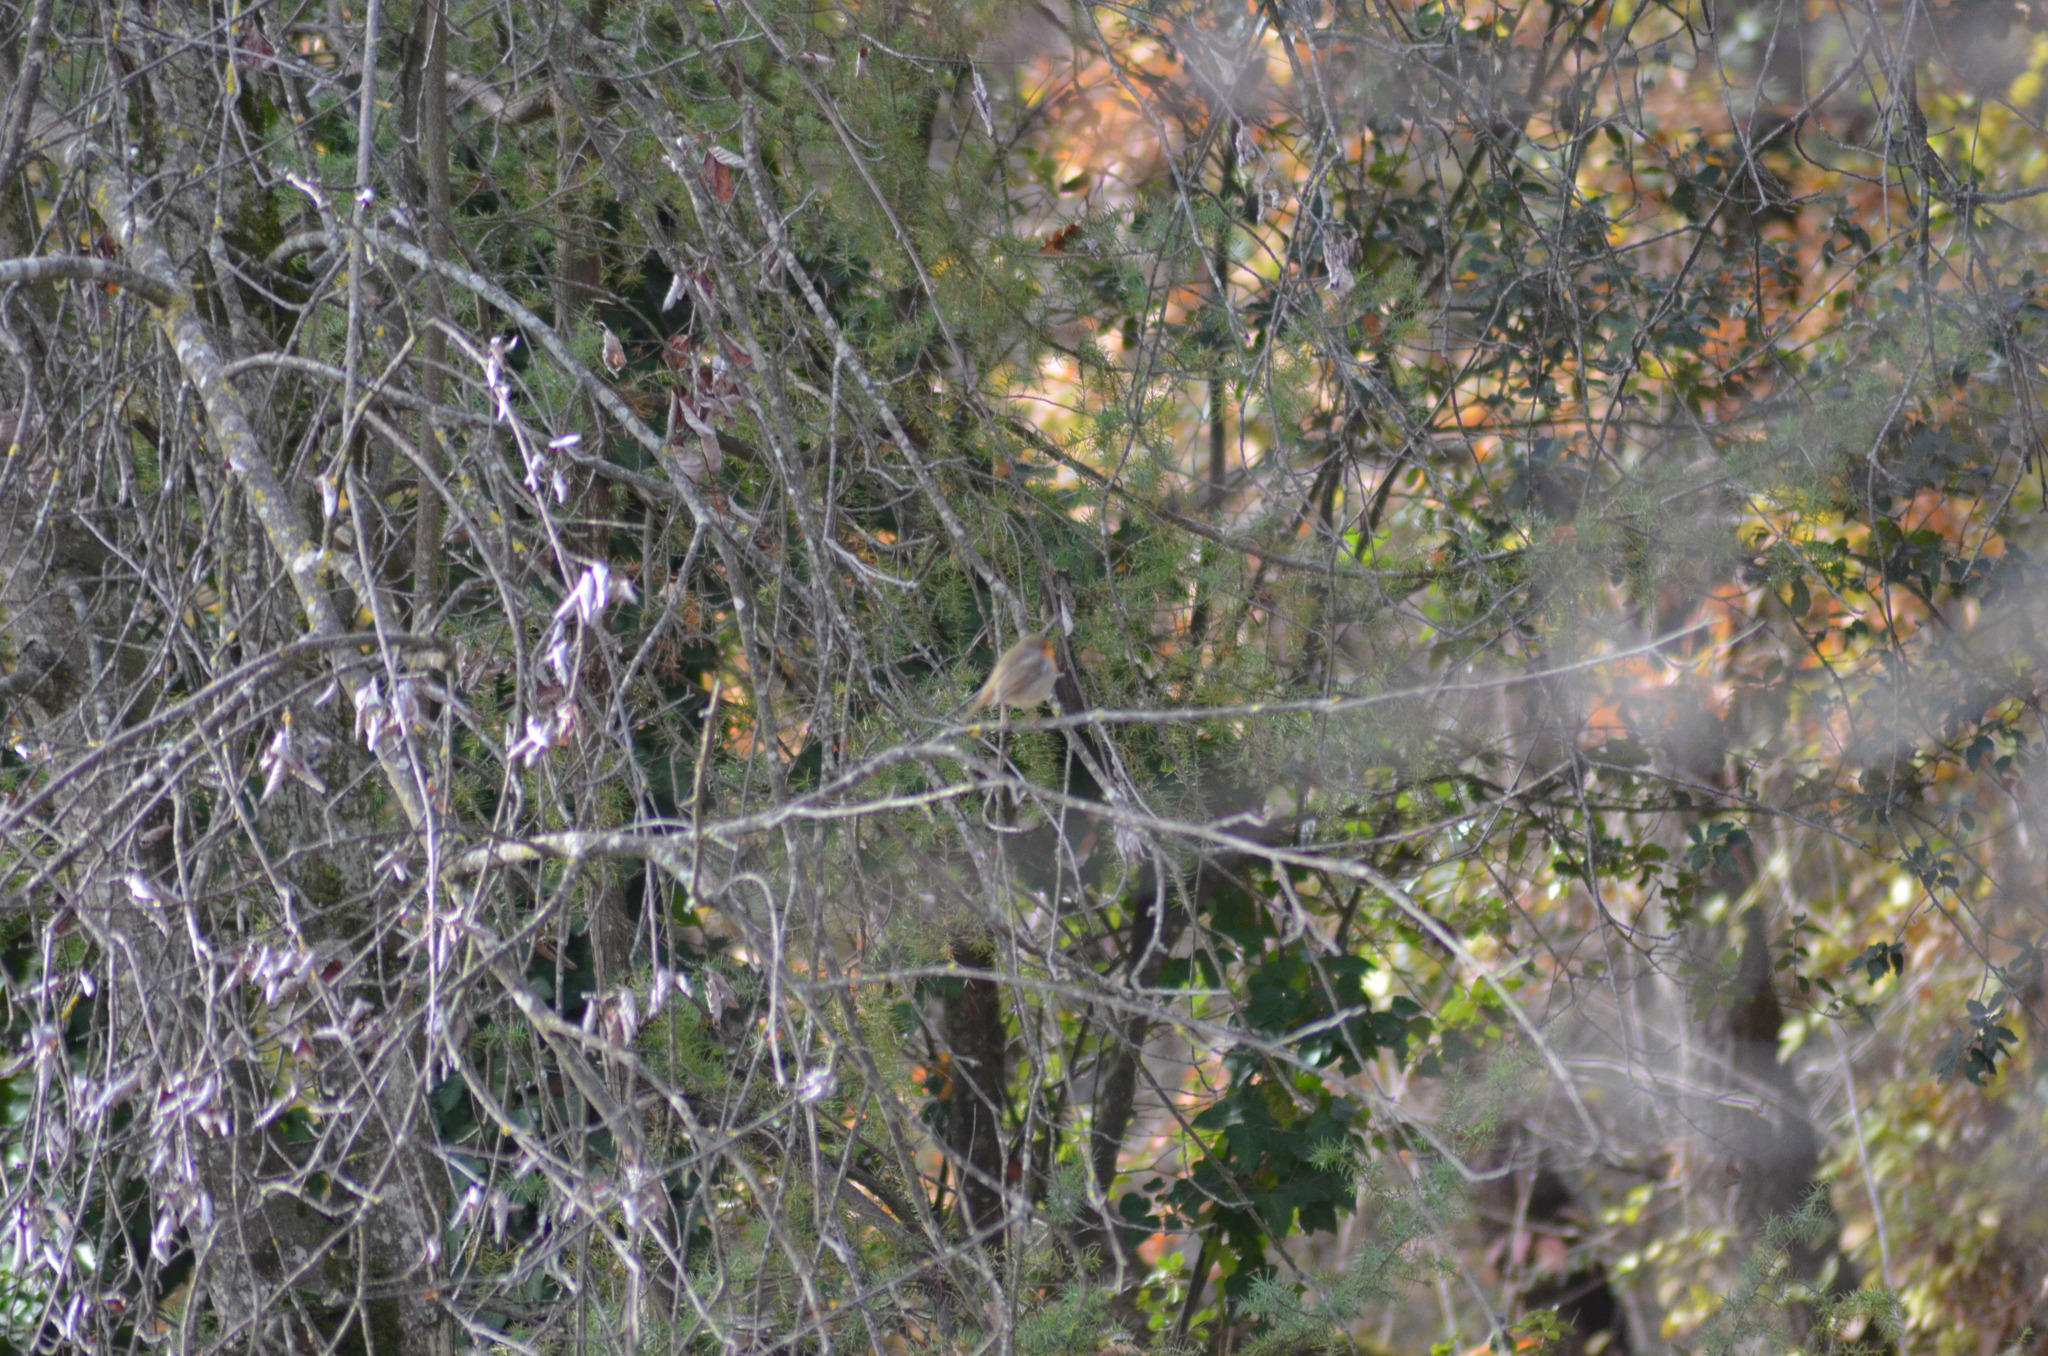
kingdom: Animalia
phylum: Chordata
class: Aves
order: Passeriformes
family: Muscicapidae
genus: Erithacus
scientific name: Erithacus rubecula
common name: European robin
